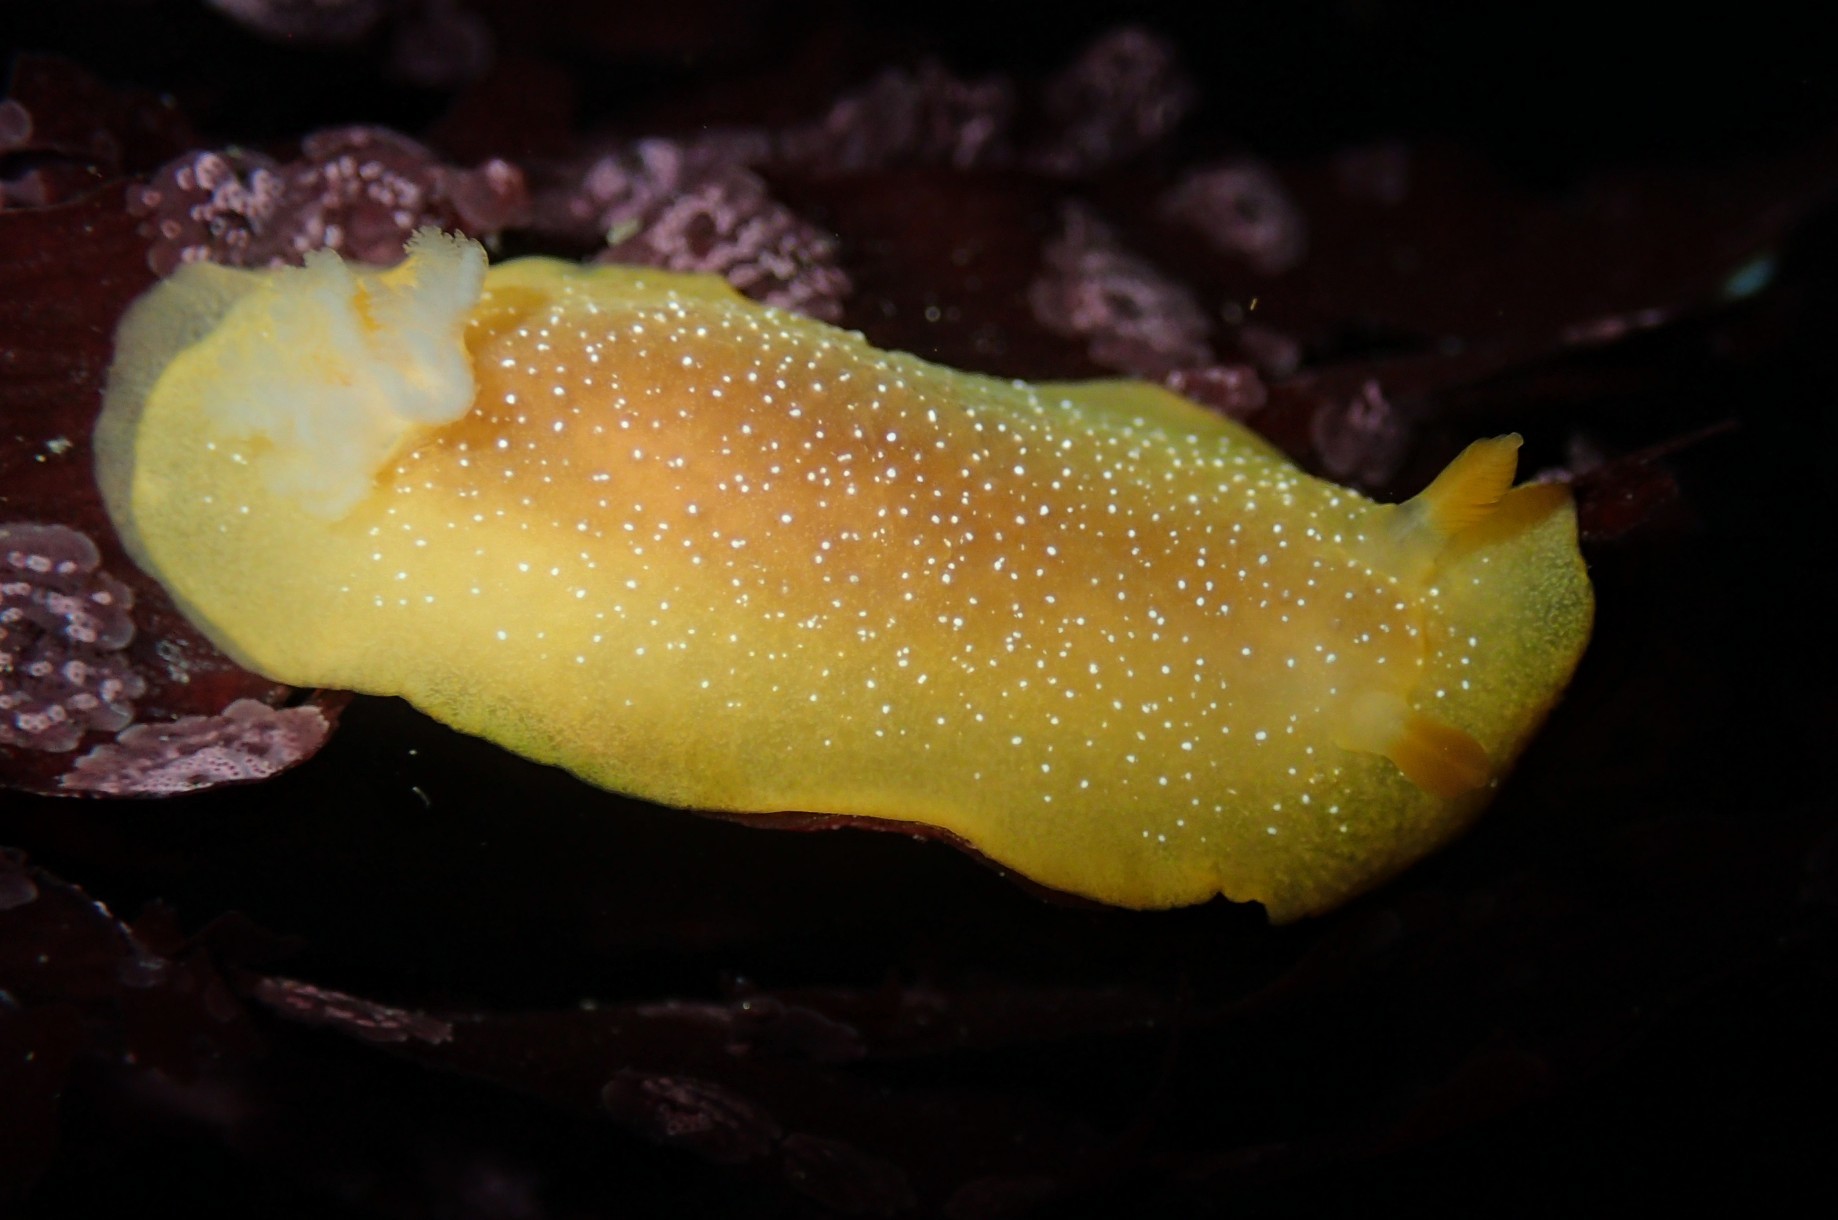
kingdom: Animalia
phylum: Mollusca
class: Gastropoda
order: Nudibranchia
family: Dendrodorididae
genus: Doriopsilla
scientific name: Doriopsilla fulva
